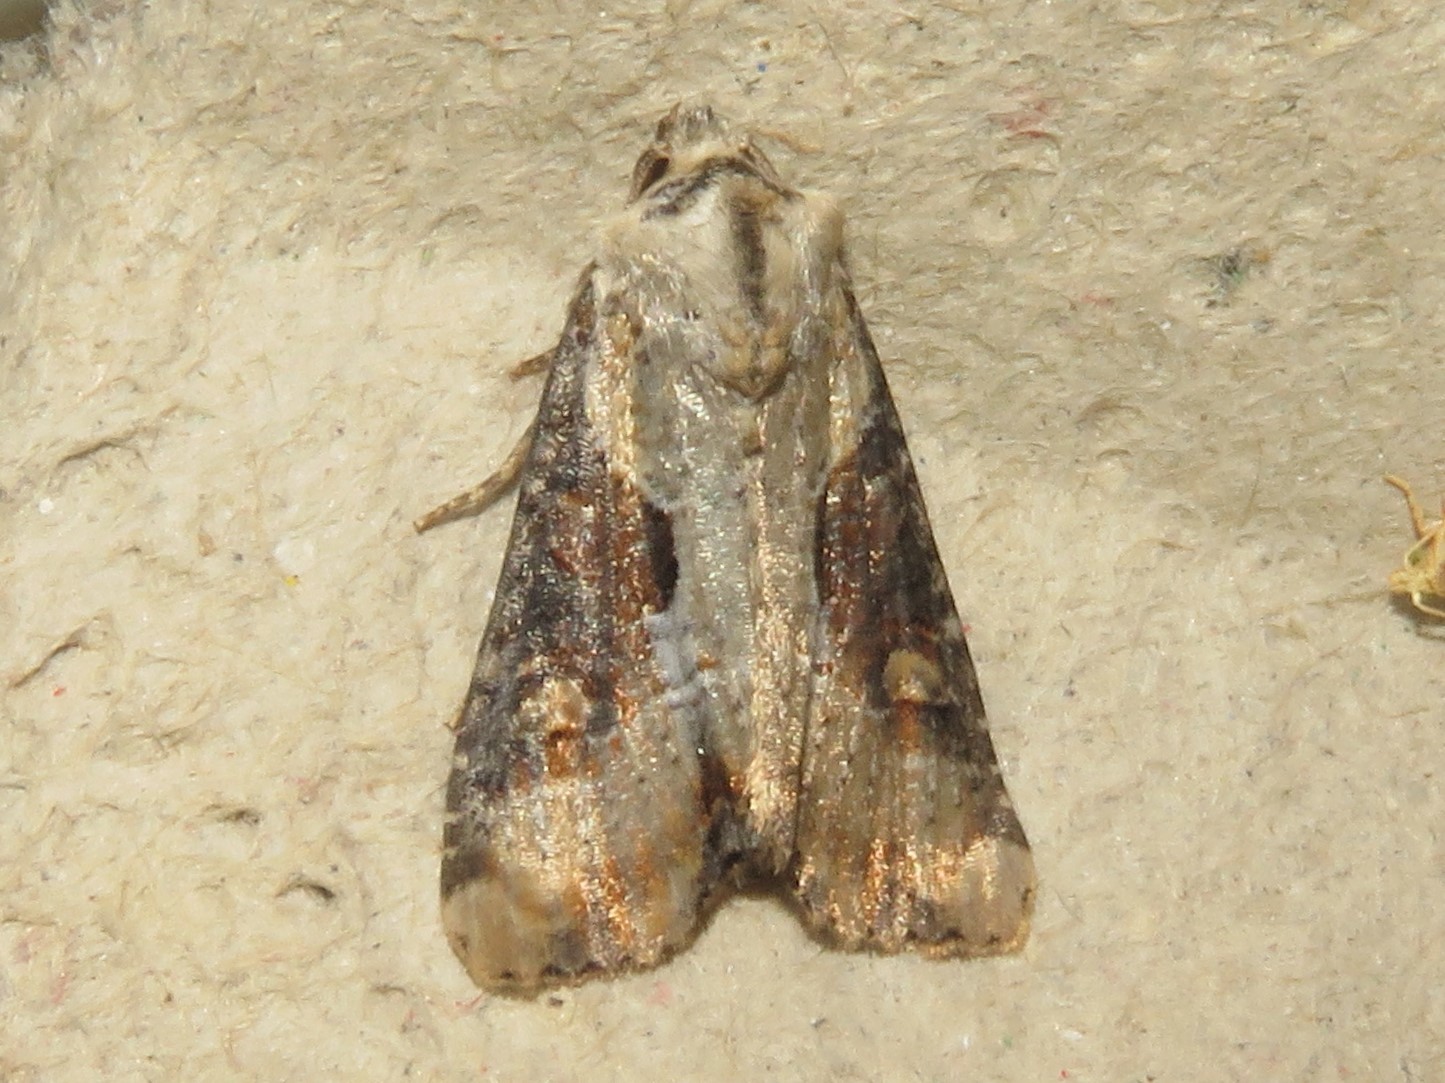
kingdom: Animalia
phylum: Arthropoda
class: Insecta
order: Lepidoptera
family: Noctuidae
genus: Lateroligia
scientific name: Lateroligia ophiogramma
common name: Double lobed
